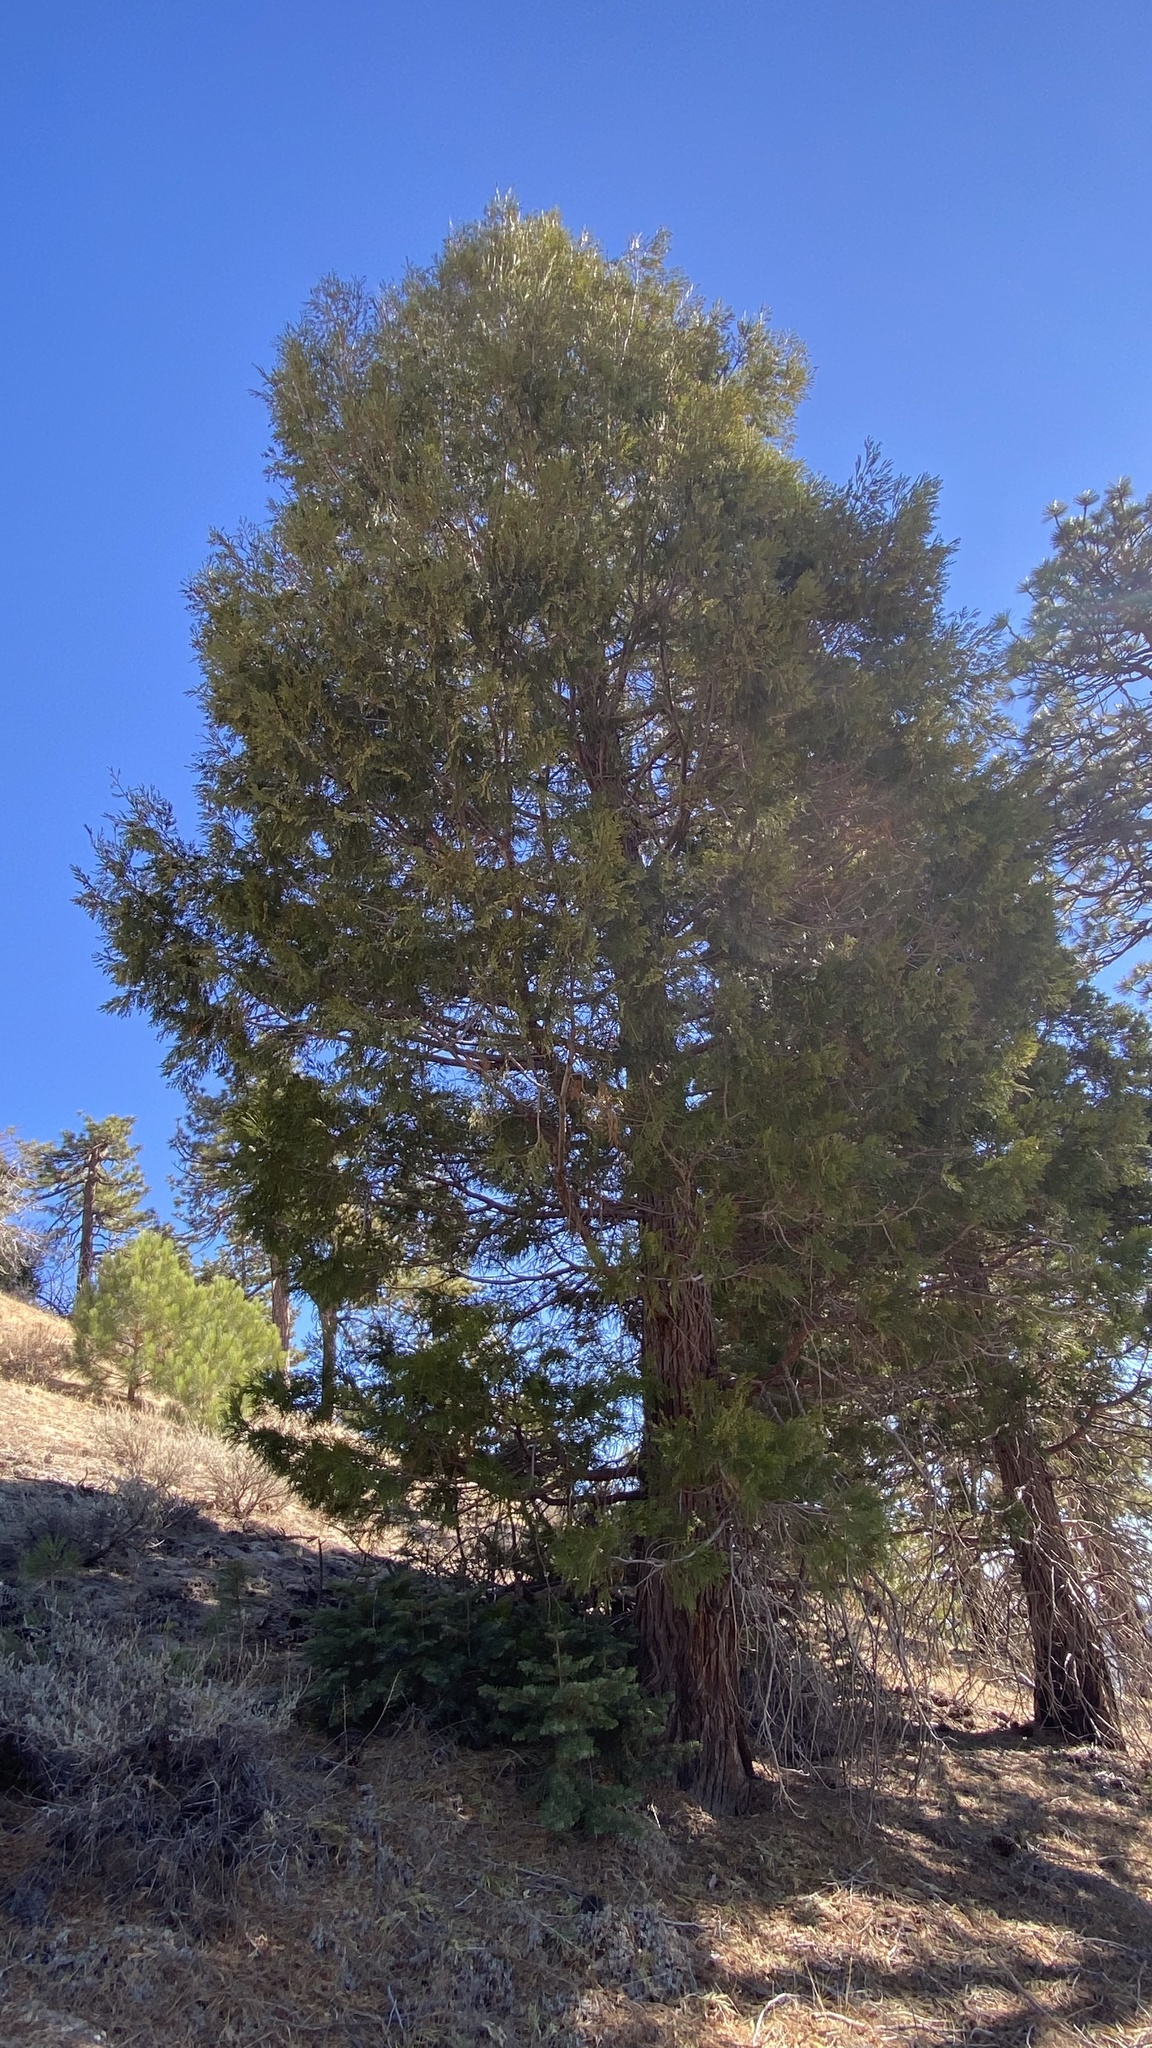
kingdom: Plantae
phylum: Tracheophyta
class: Pinopsida
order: Pinales
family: Cupressaceae
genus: Calocedrus
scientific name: Calocedrus decurrens
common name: Californian incense-cedar
